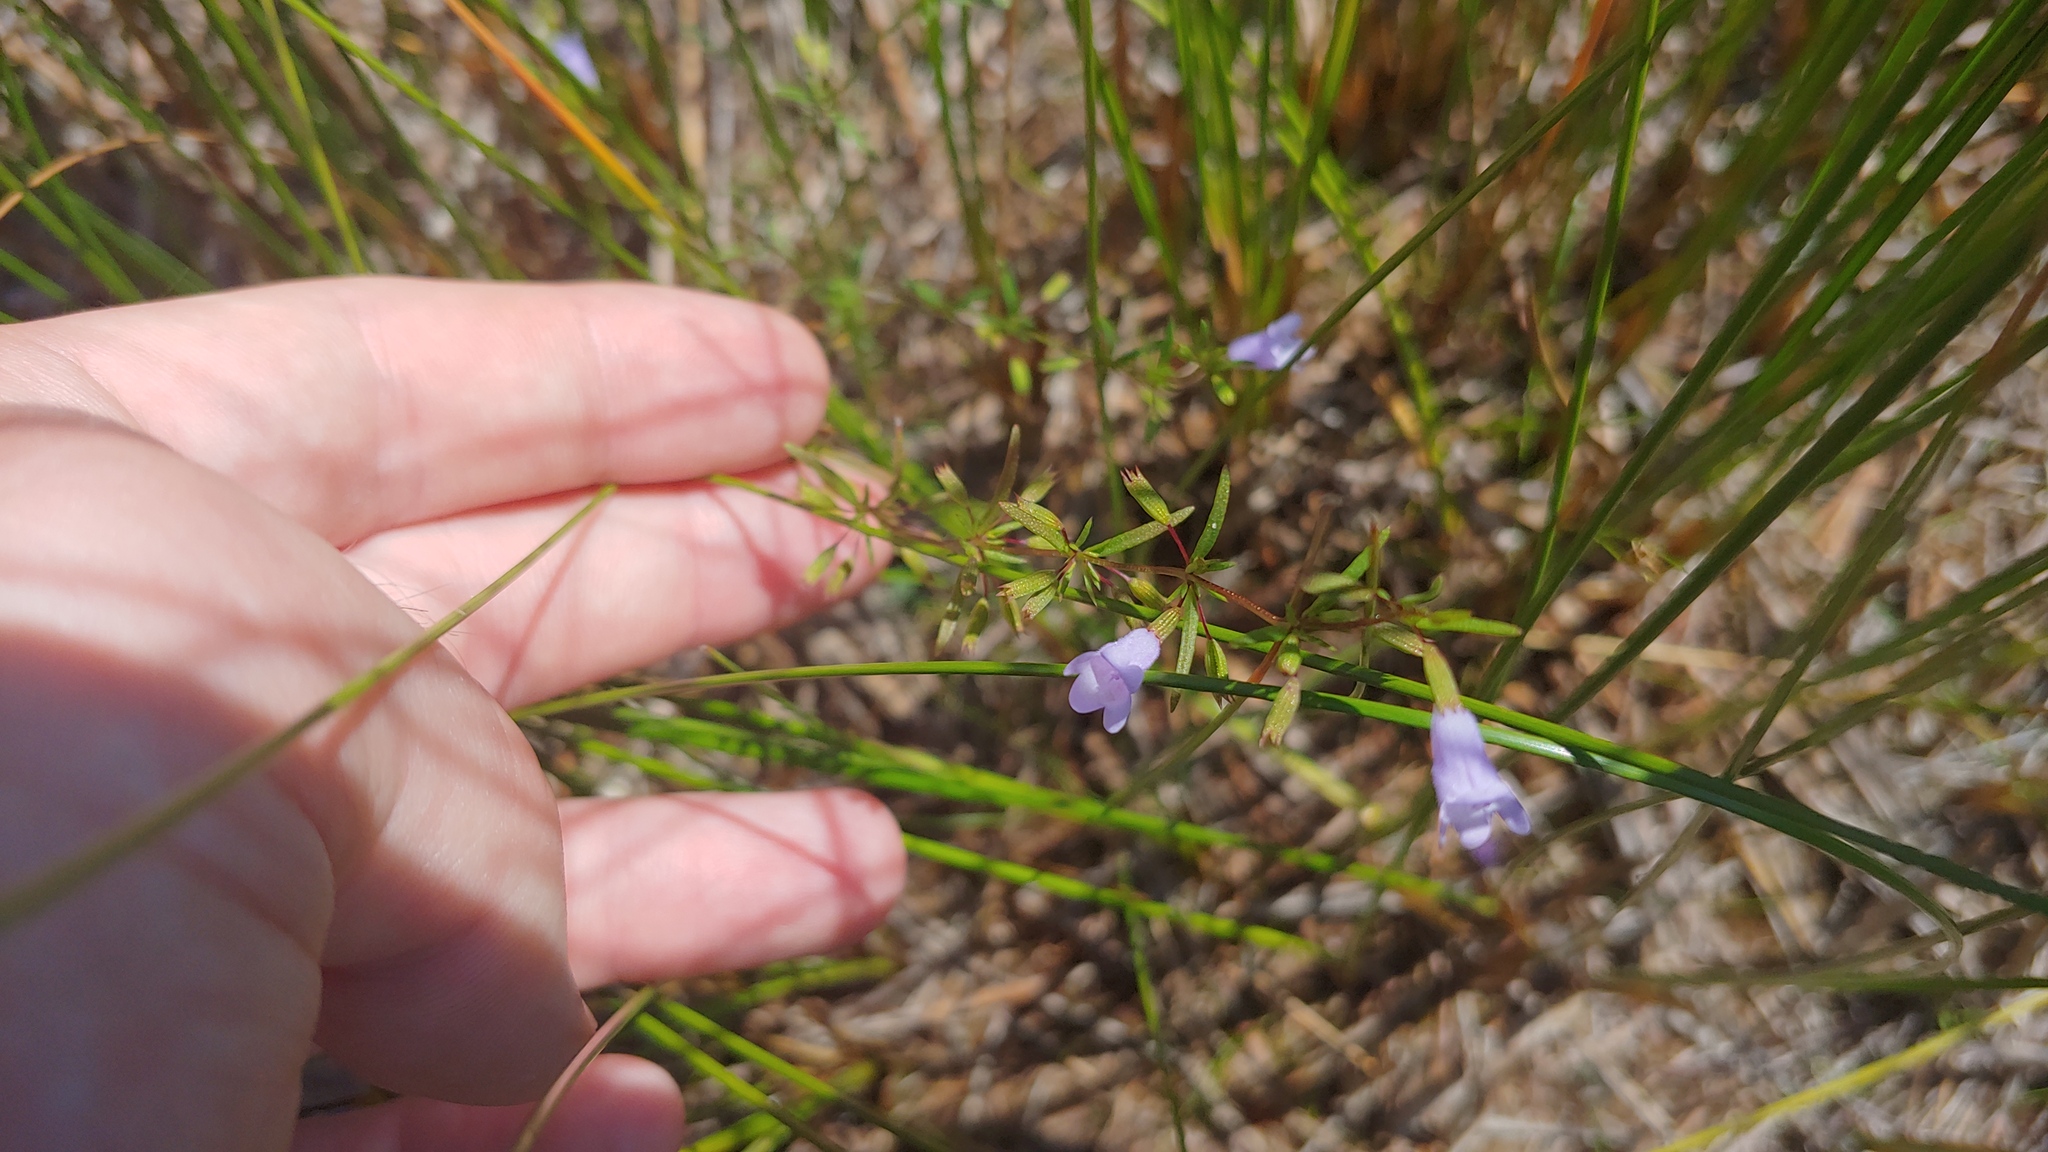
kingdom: Plantae
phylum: Tracheophyta
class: Magnoliopsida
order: Lamiales
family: Lamiaceae
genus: Clinopodium
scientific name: Clinopodium arkansanum
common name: Limestone calamint
